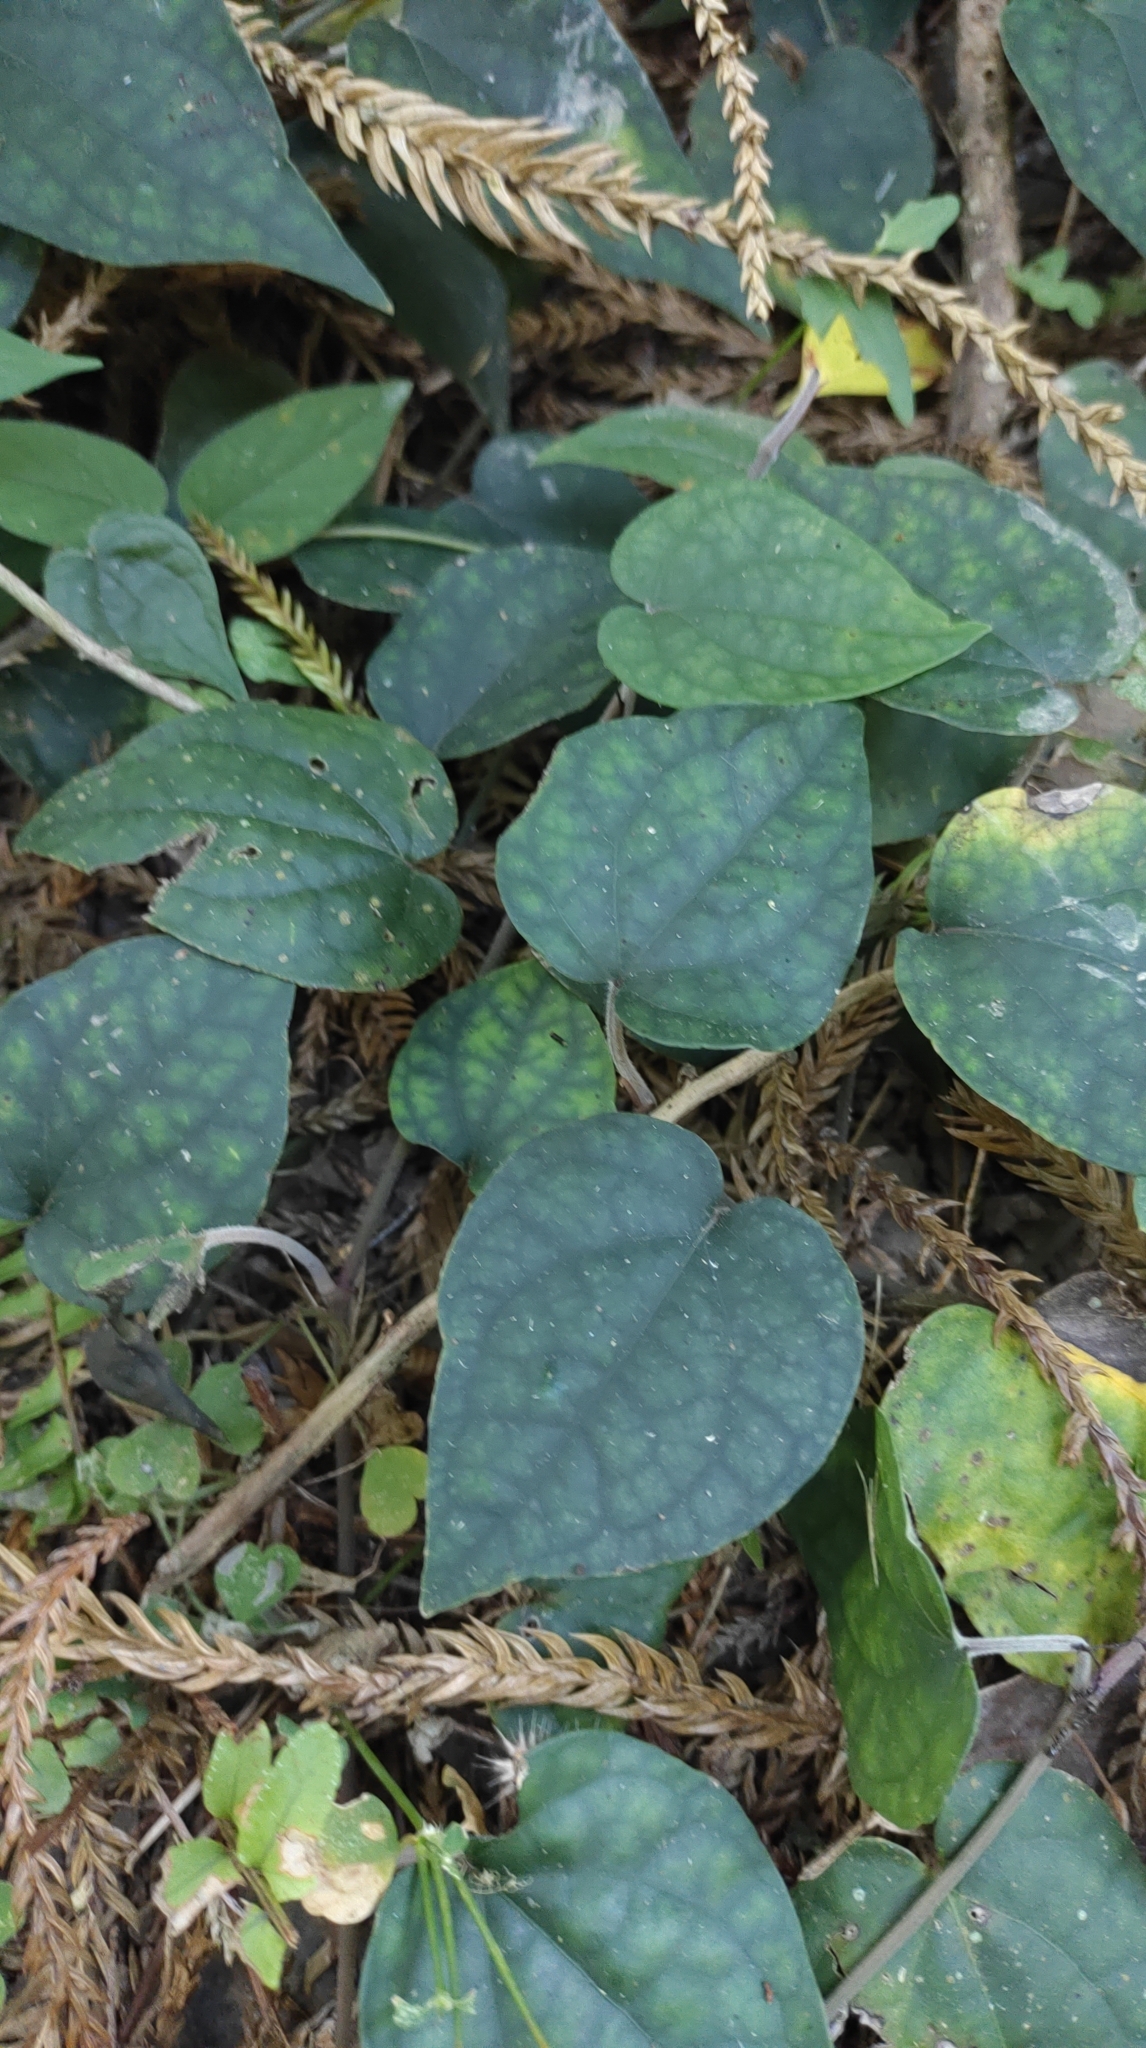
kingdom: Plantae
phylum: Tracheophyta
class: Magnoliopsida
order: Piperales
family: Piperaceae
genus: Piper
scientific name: Piper kadsura
